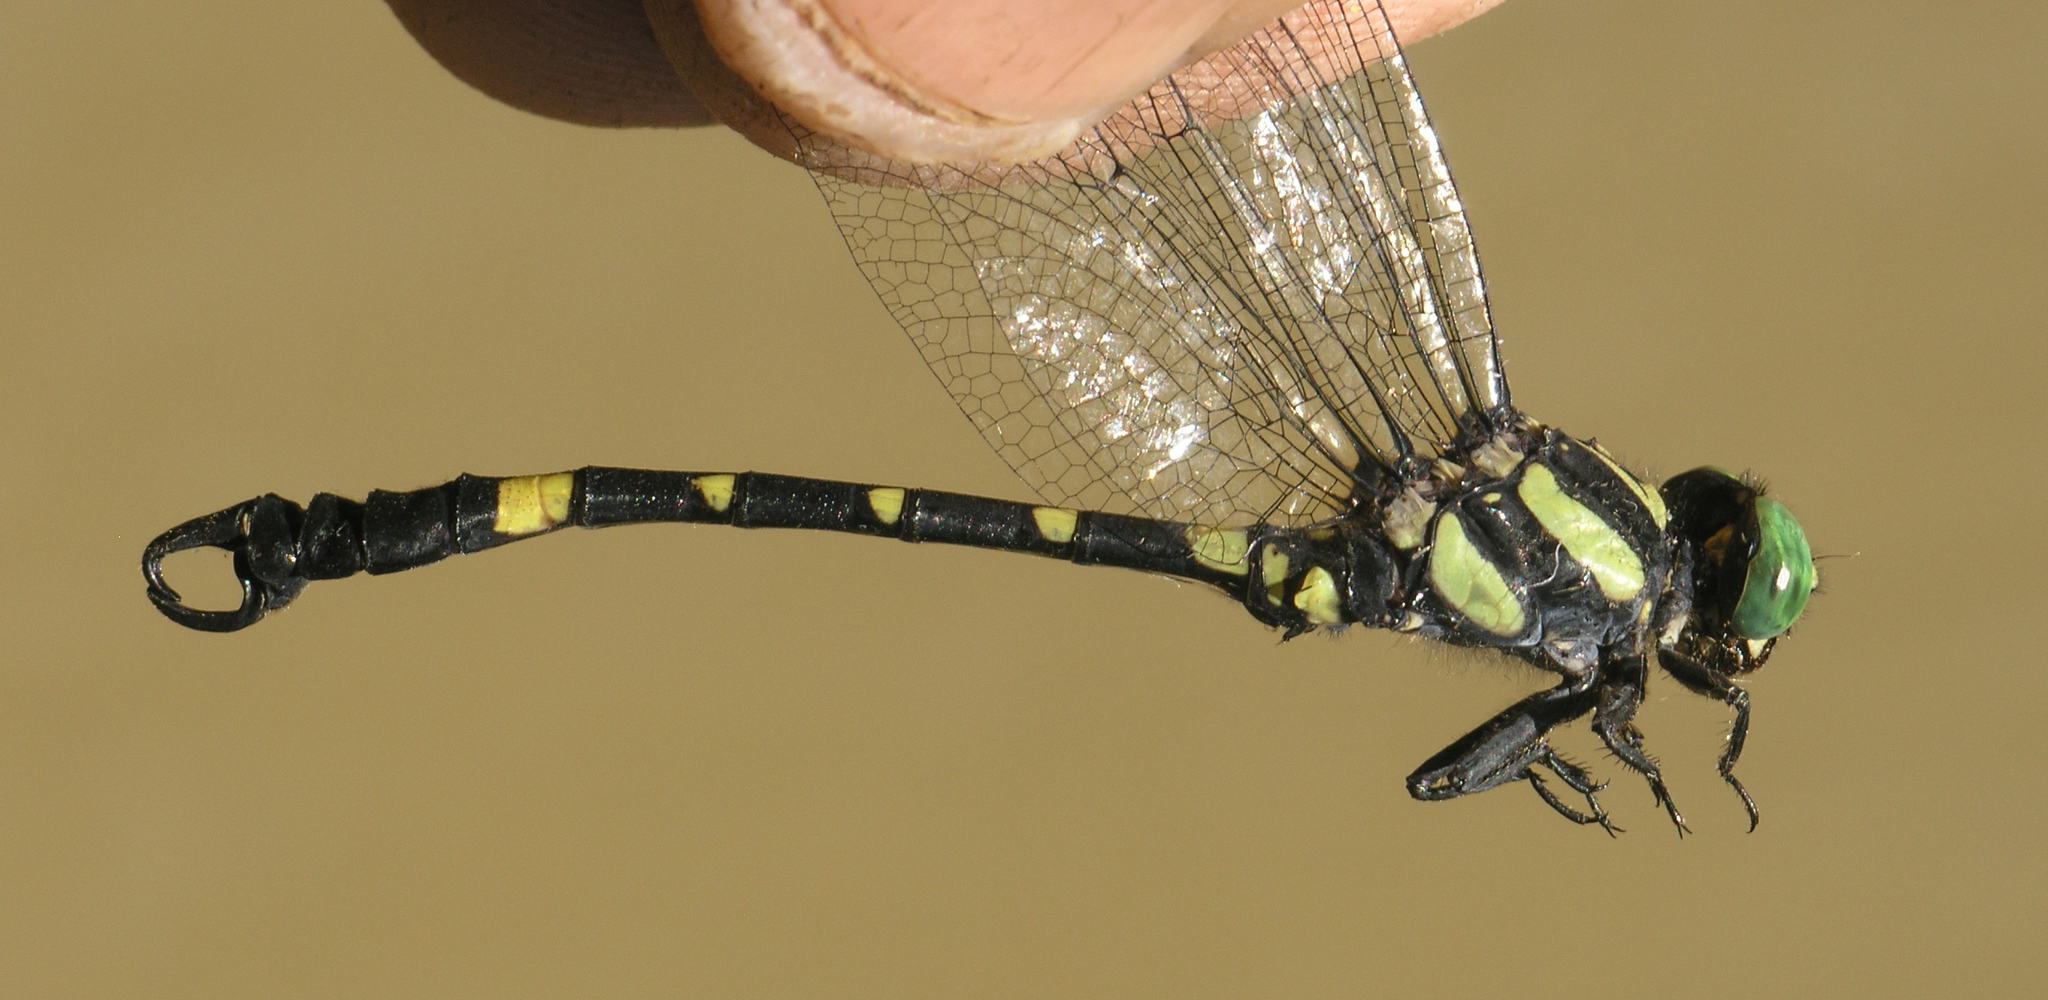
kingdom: Animalia
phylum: Arthropoda
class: Insecta
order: Odonata
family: Gomphidae
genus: Lamelligomphus
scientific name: Lamelligomphus castor
